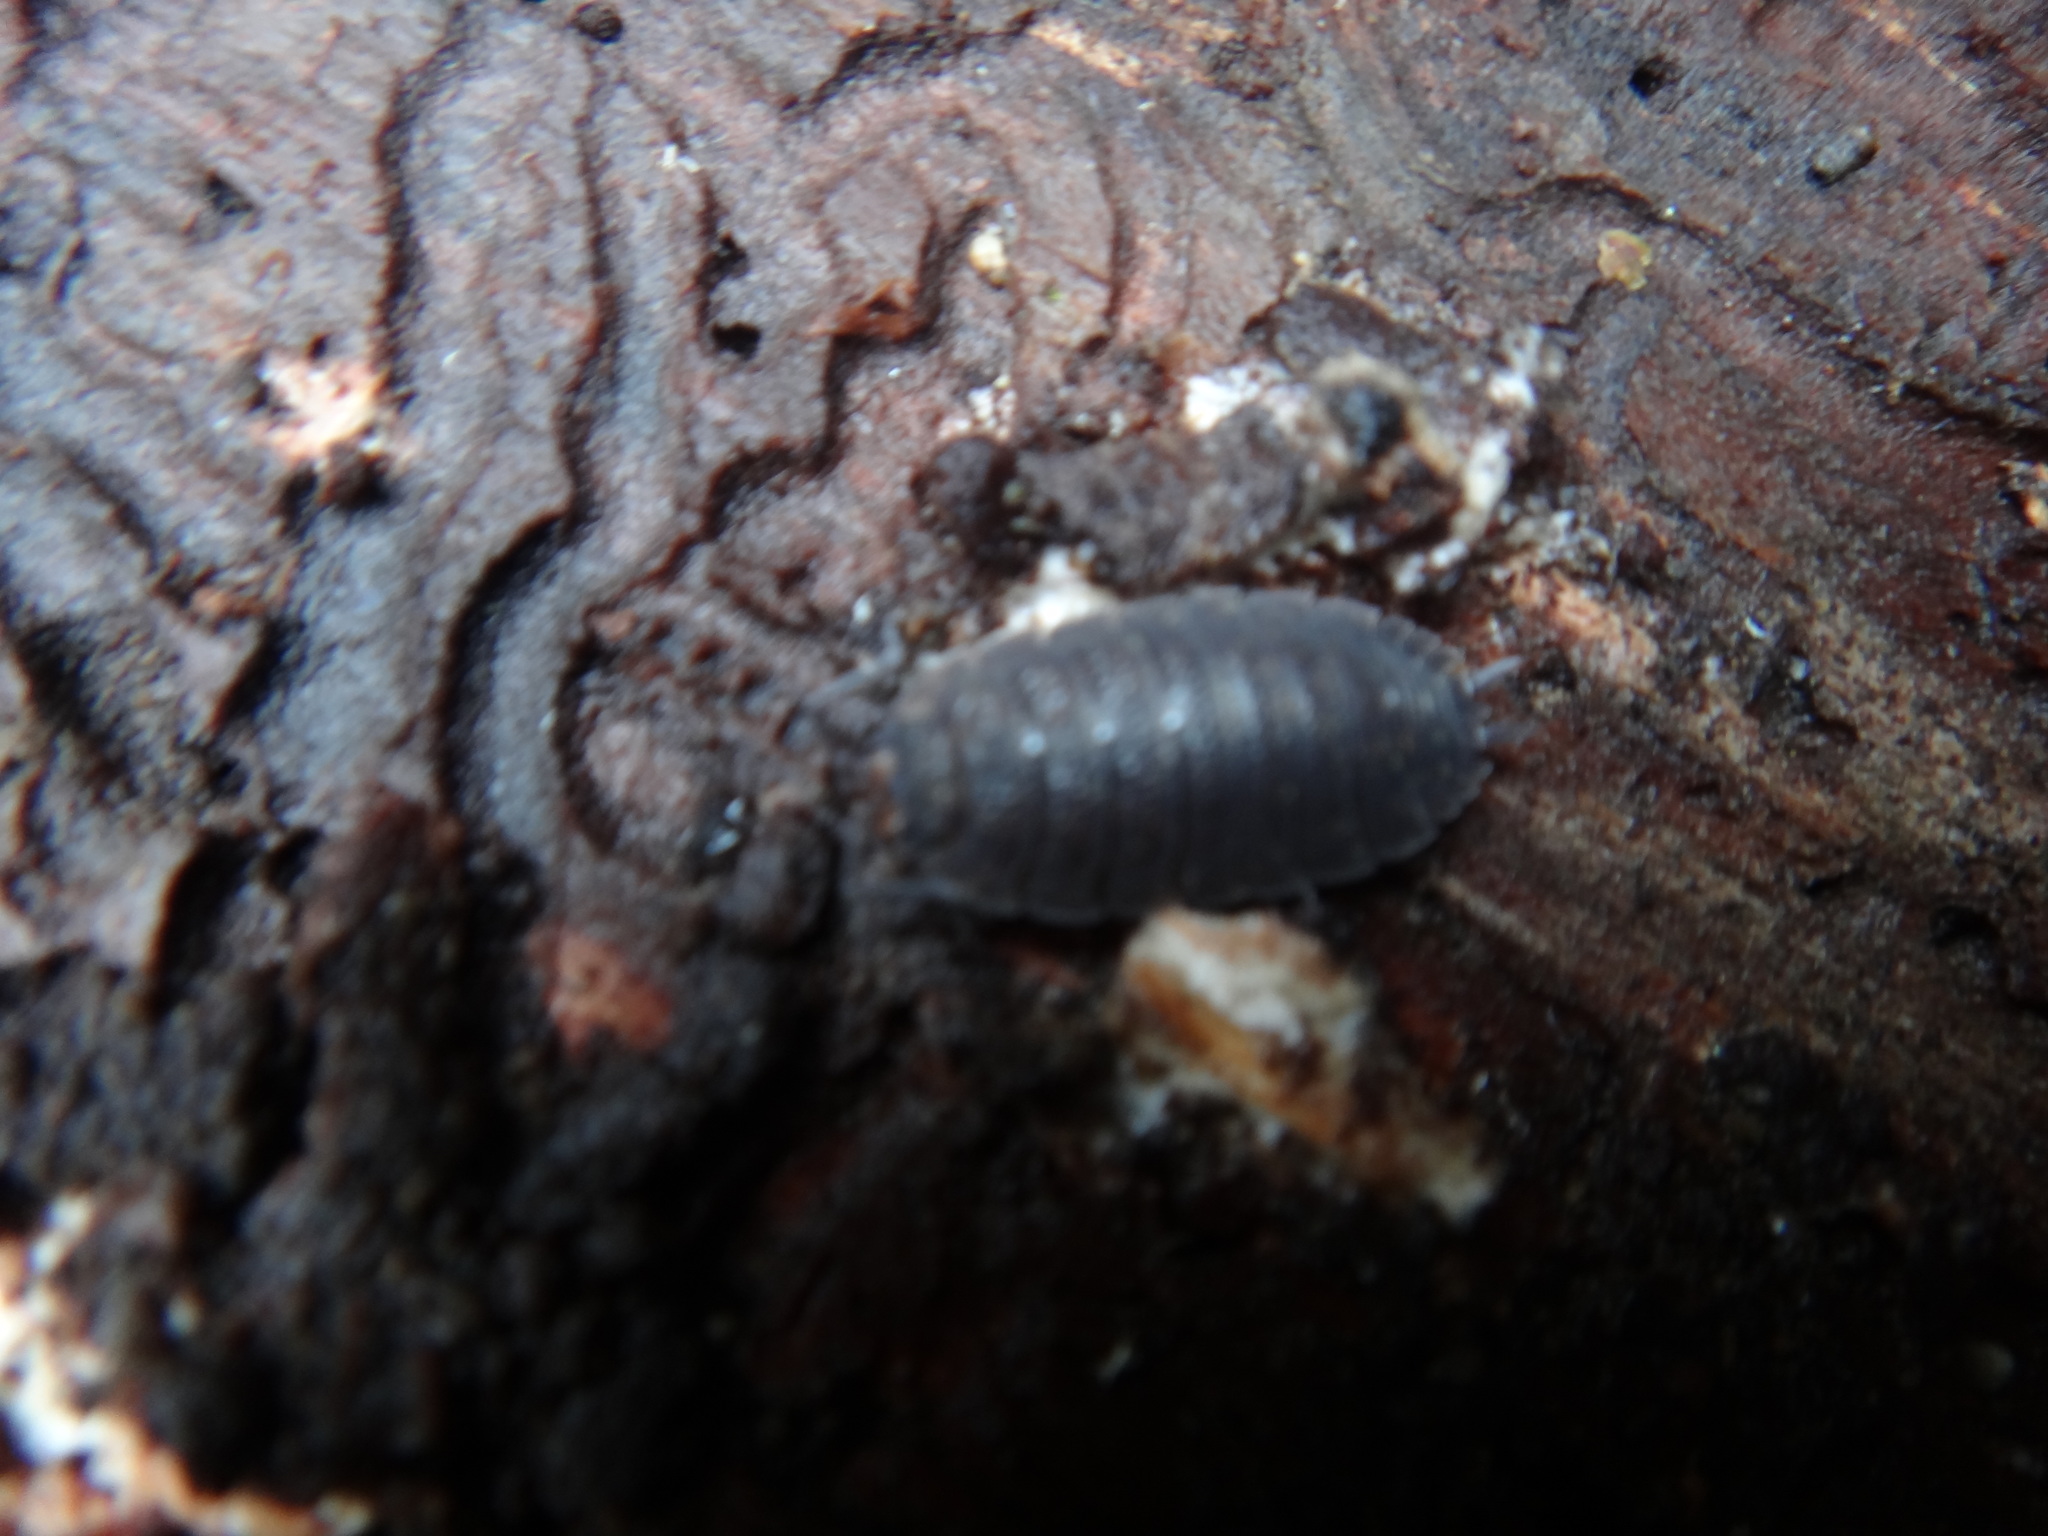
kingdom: Animalia
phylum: Arthropoda
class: Malacostraca
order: Isopoda
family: Porcellionidae
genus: Porcellio
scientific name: Porcellio scaber
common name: Common rough woodlouse
